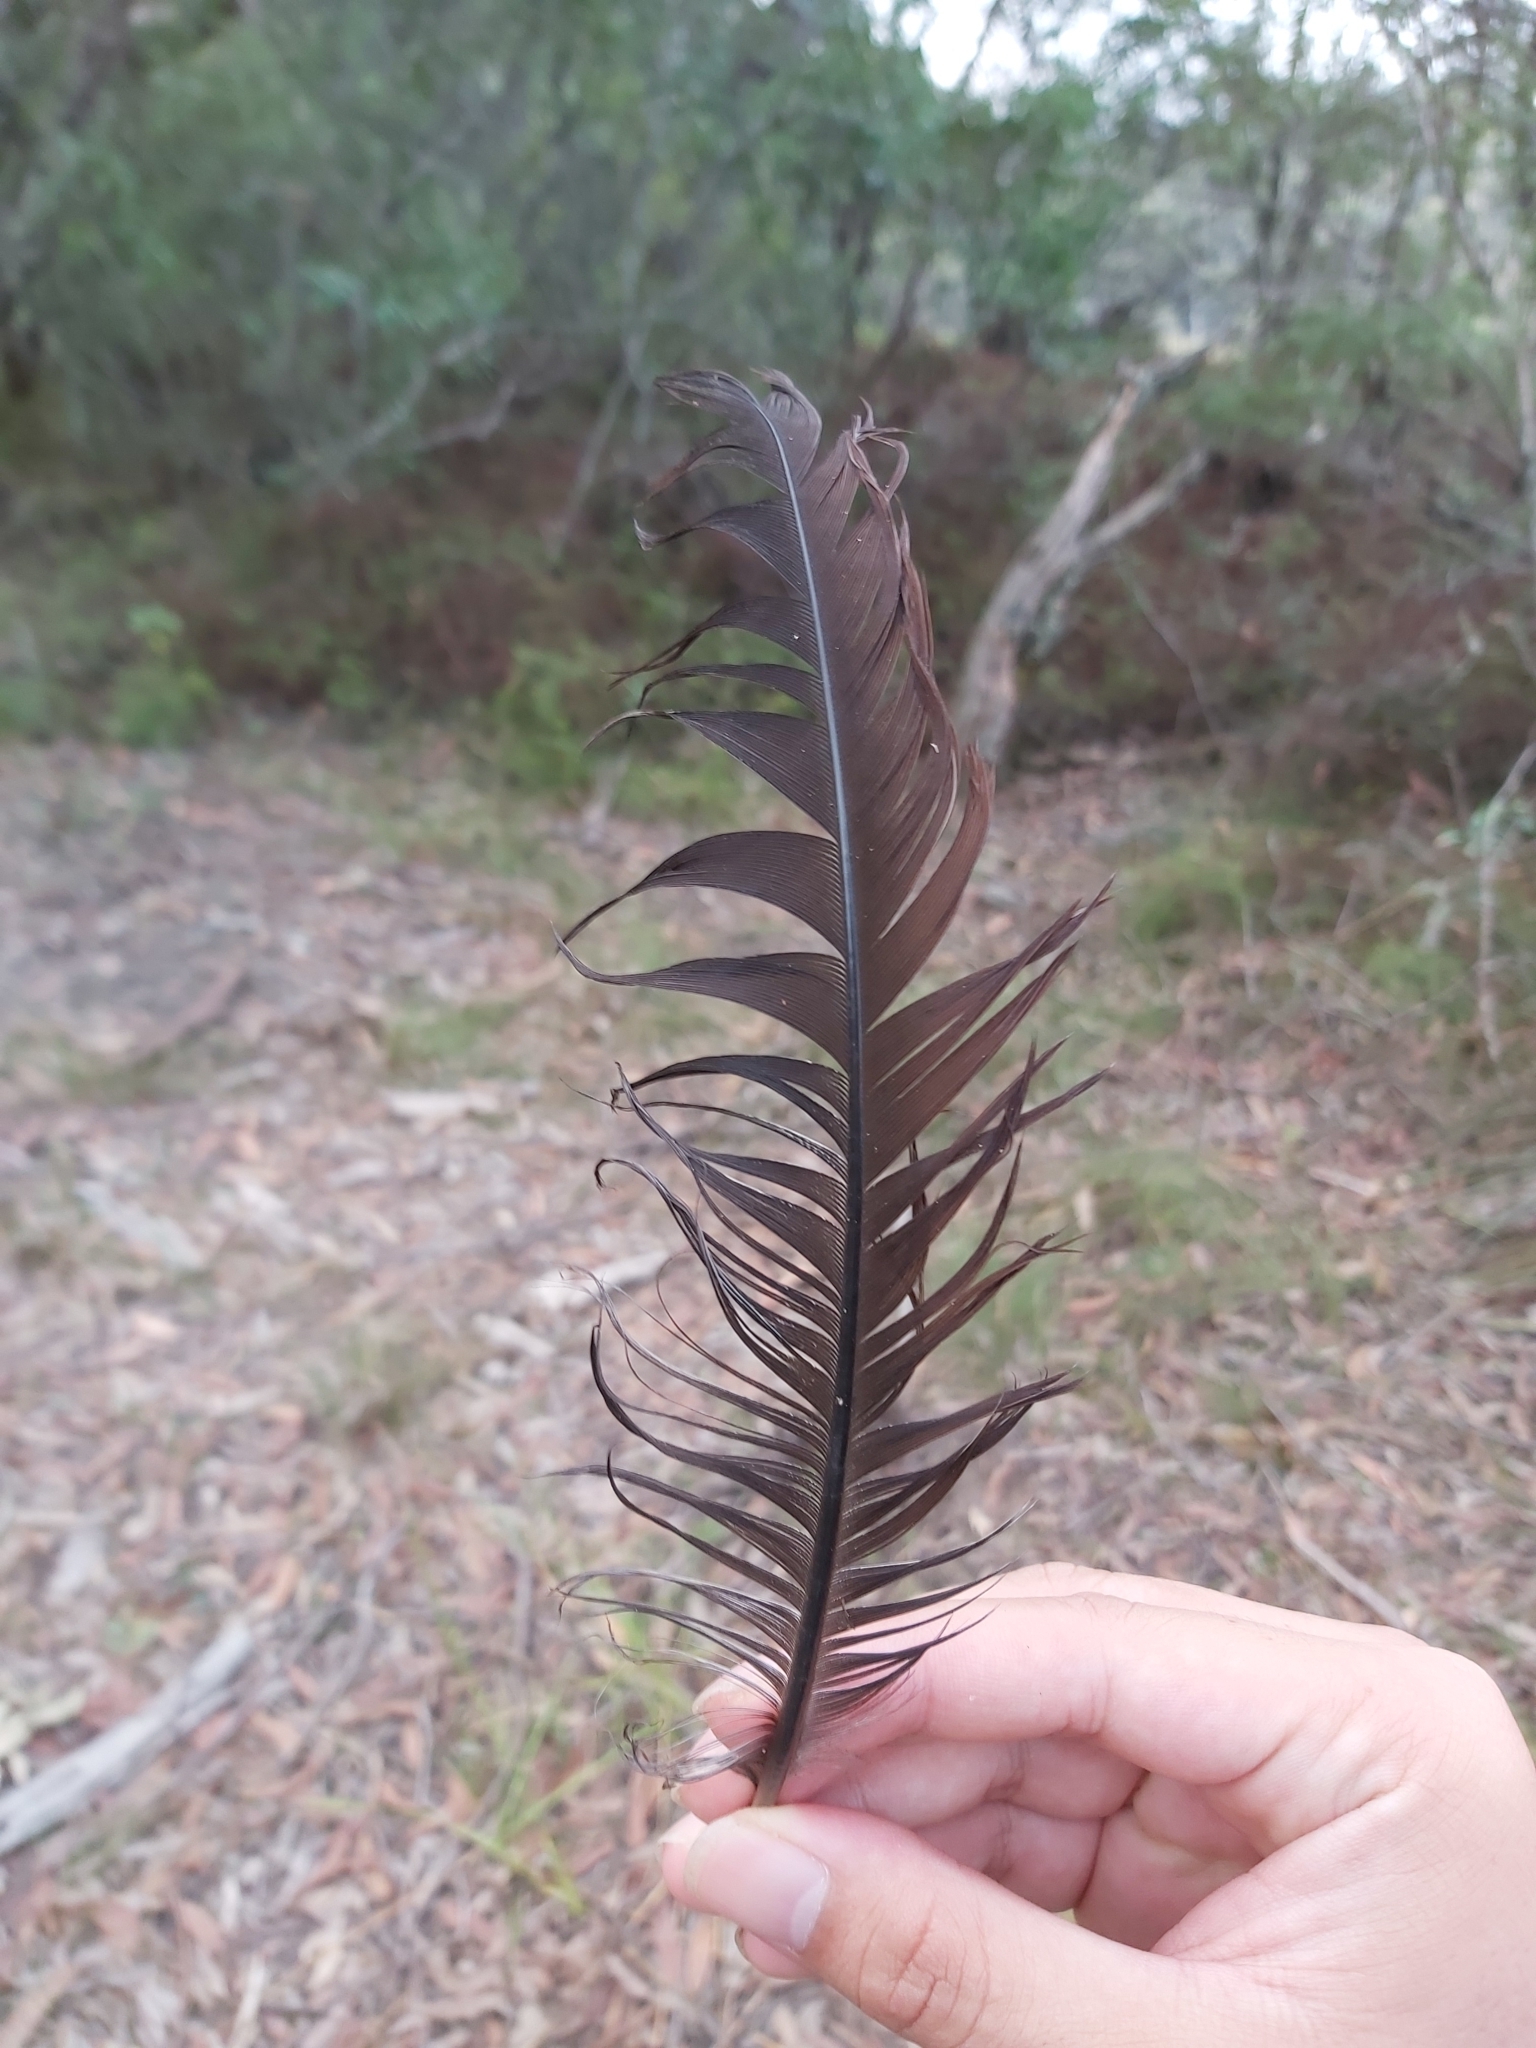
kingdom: Animalia
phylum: Chordata
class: Aves
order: Passeriformes
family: Menuridae
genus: Menura
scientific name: Menura novaehollandiae
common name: Superb lyrebird
